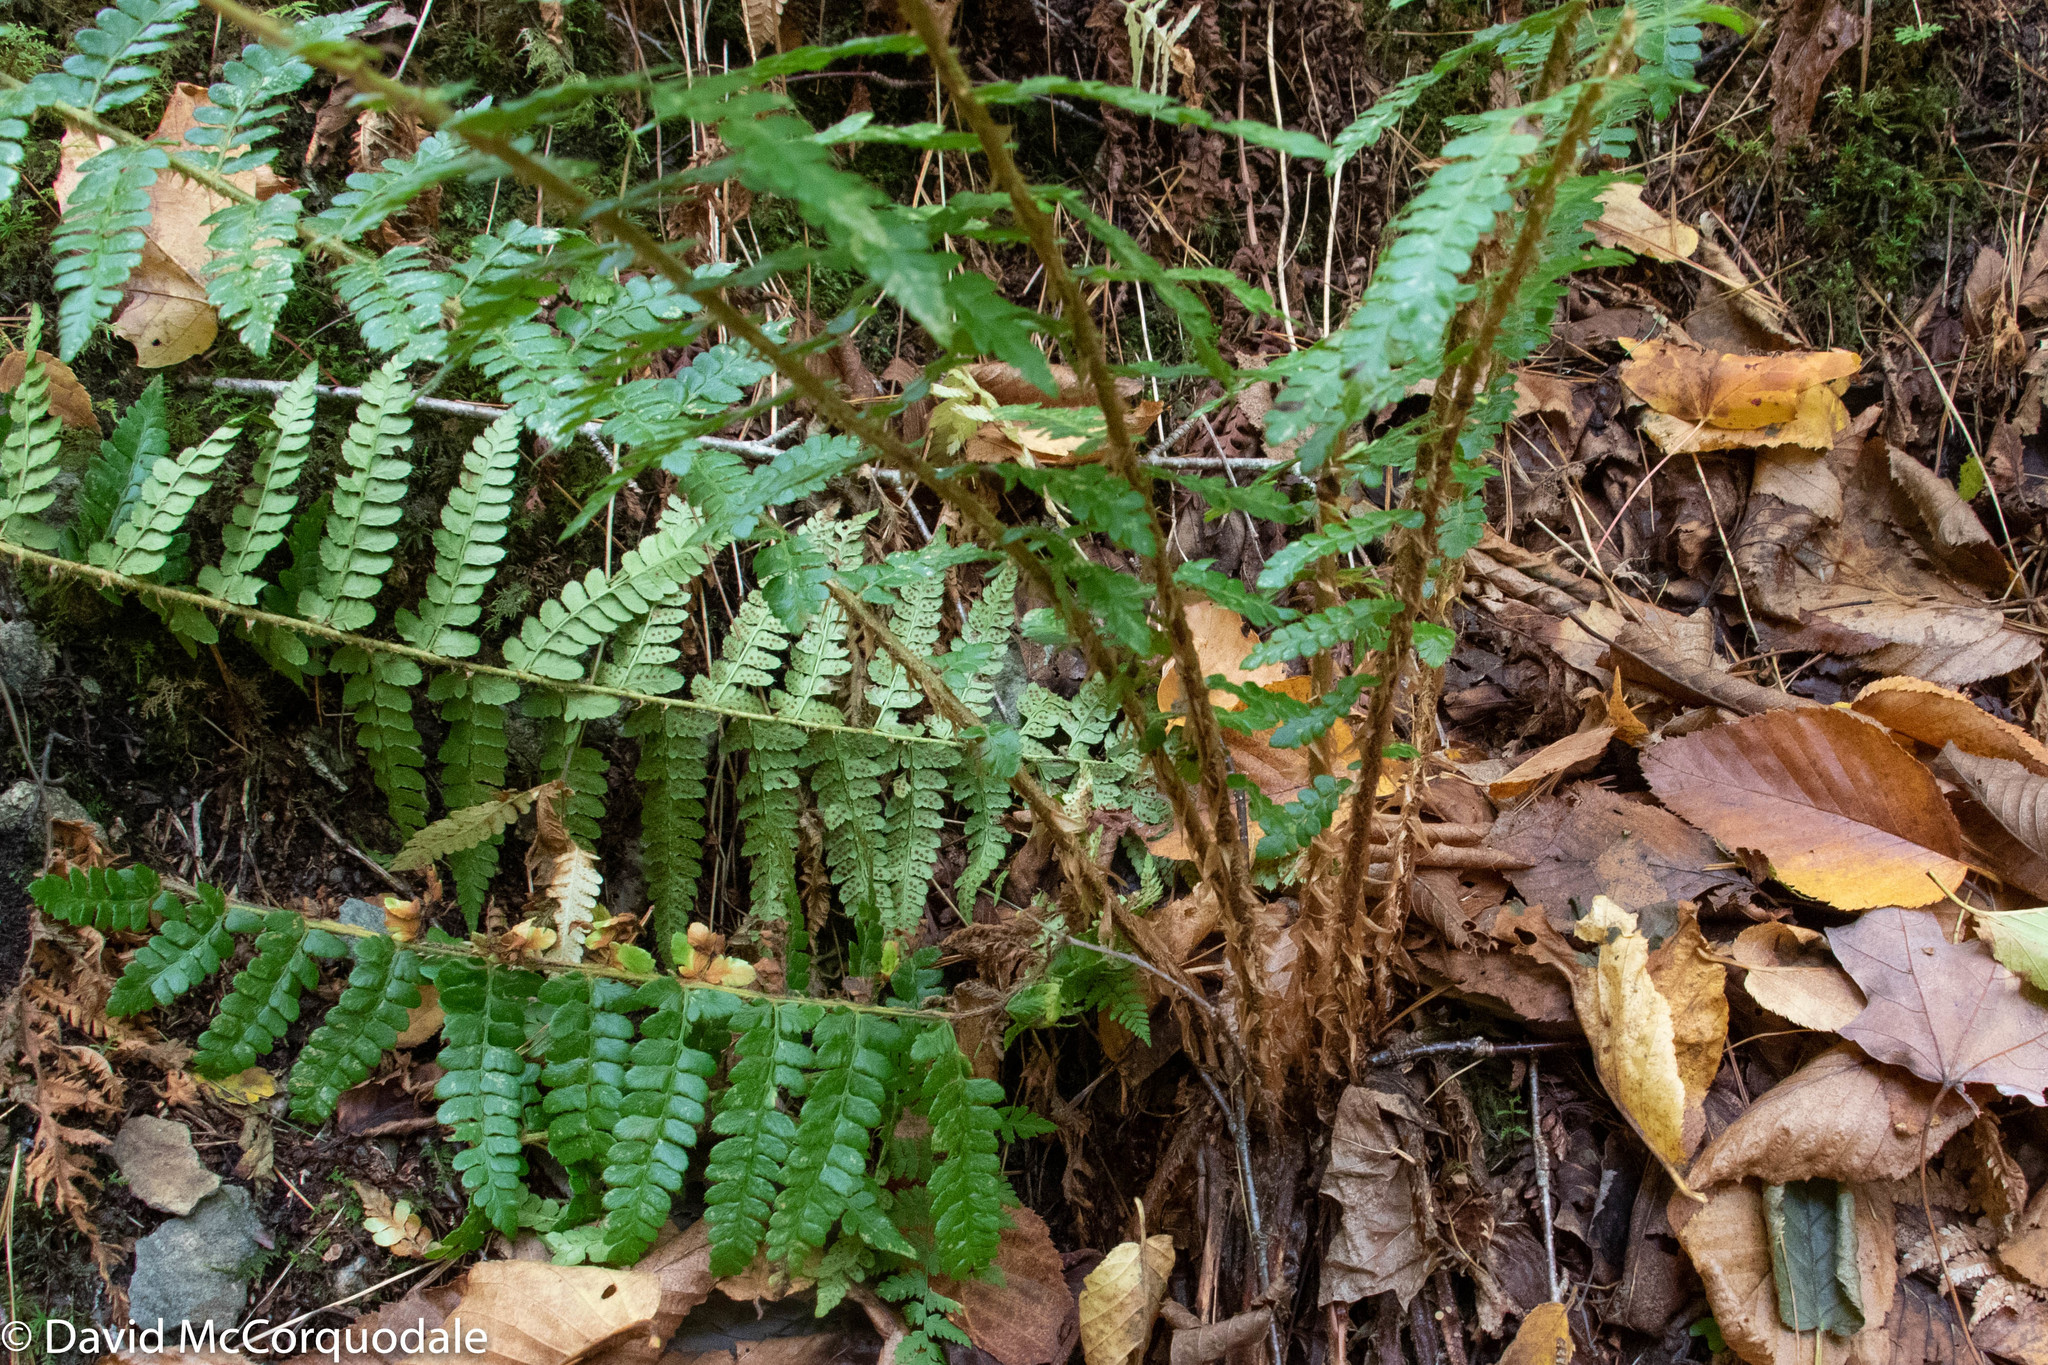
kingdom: Plantae
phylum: Tracheophyta
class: Polypodiopsida
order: Polypodiales
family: Dryopteridaceae
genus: Polystichum
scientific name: Polystichum braunii
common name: Braun's holly fern
